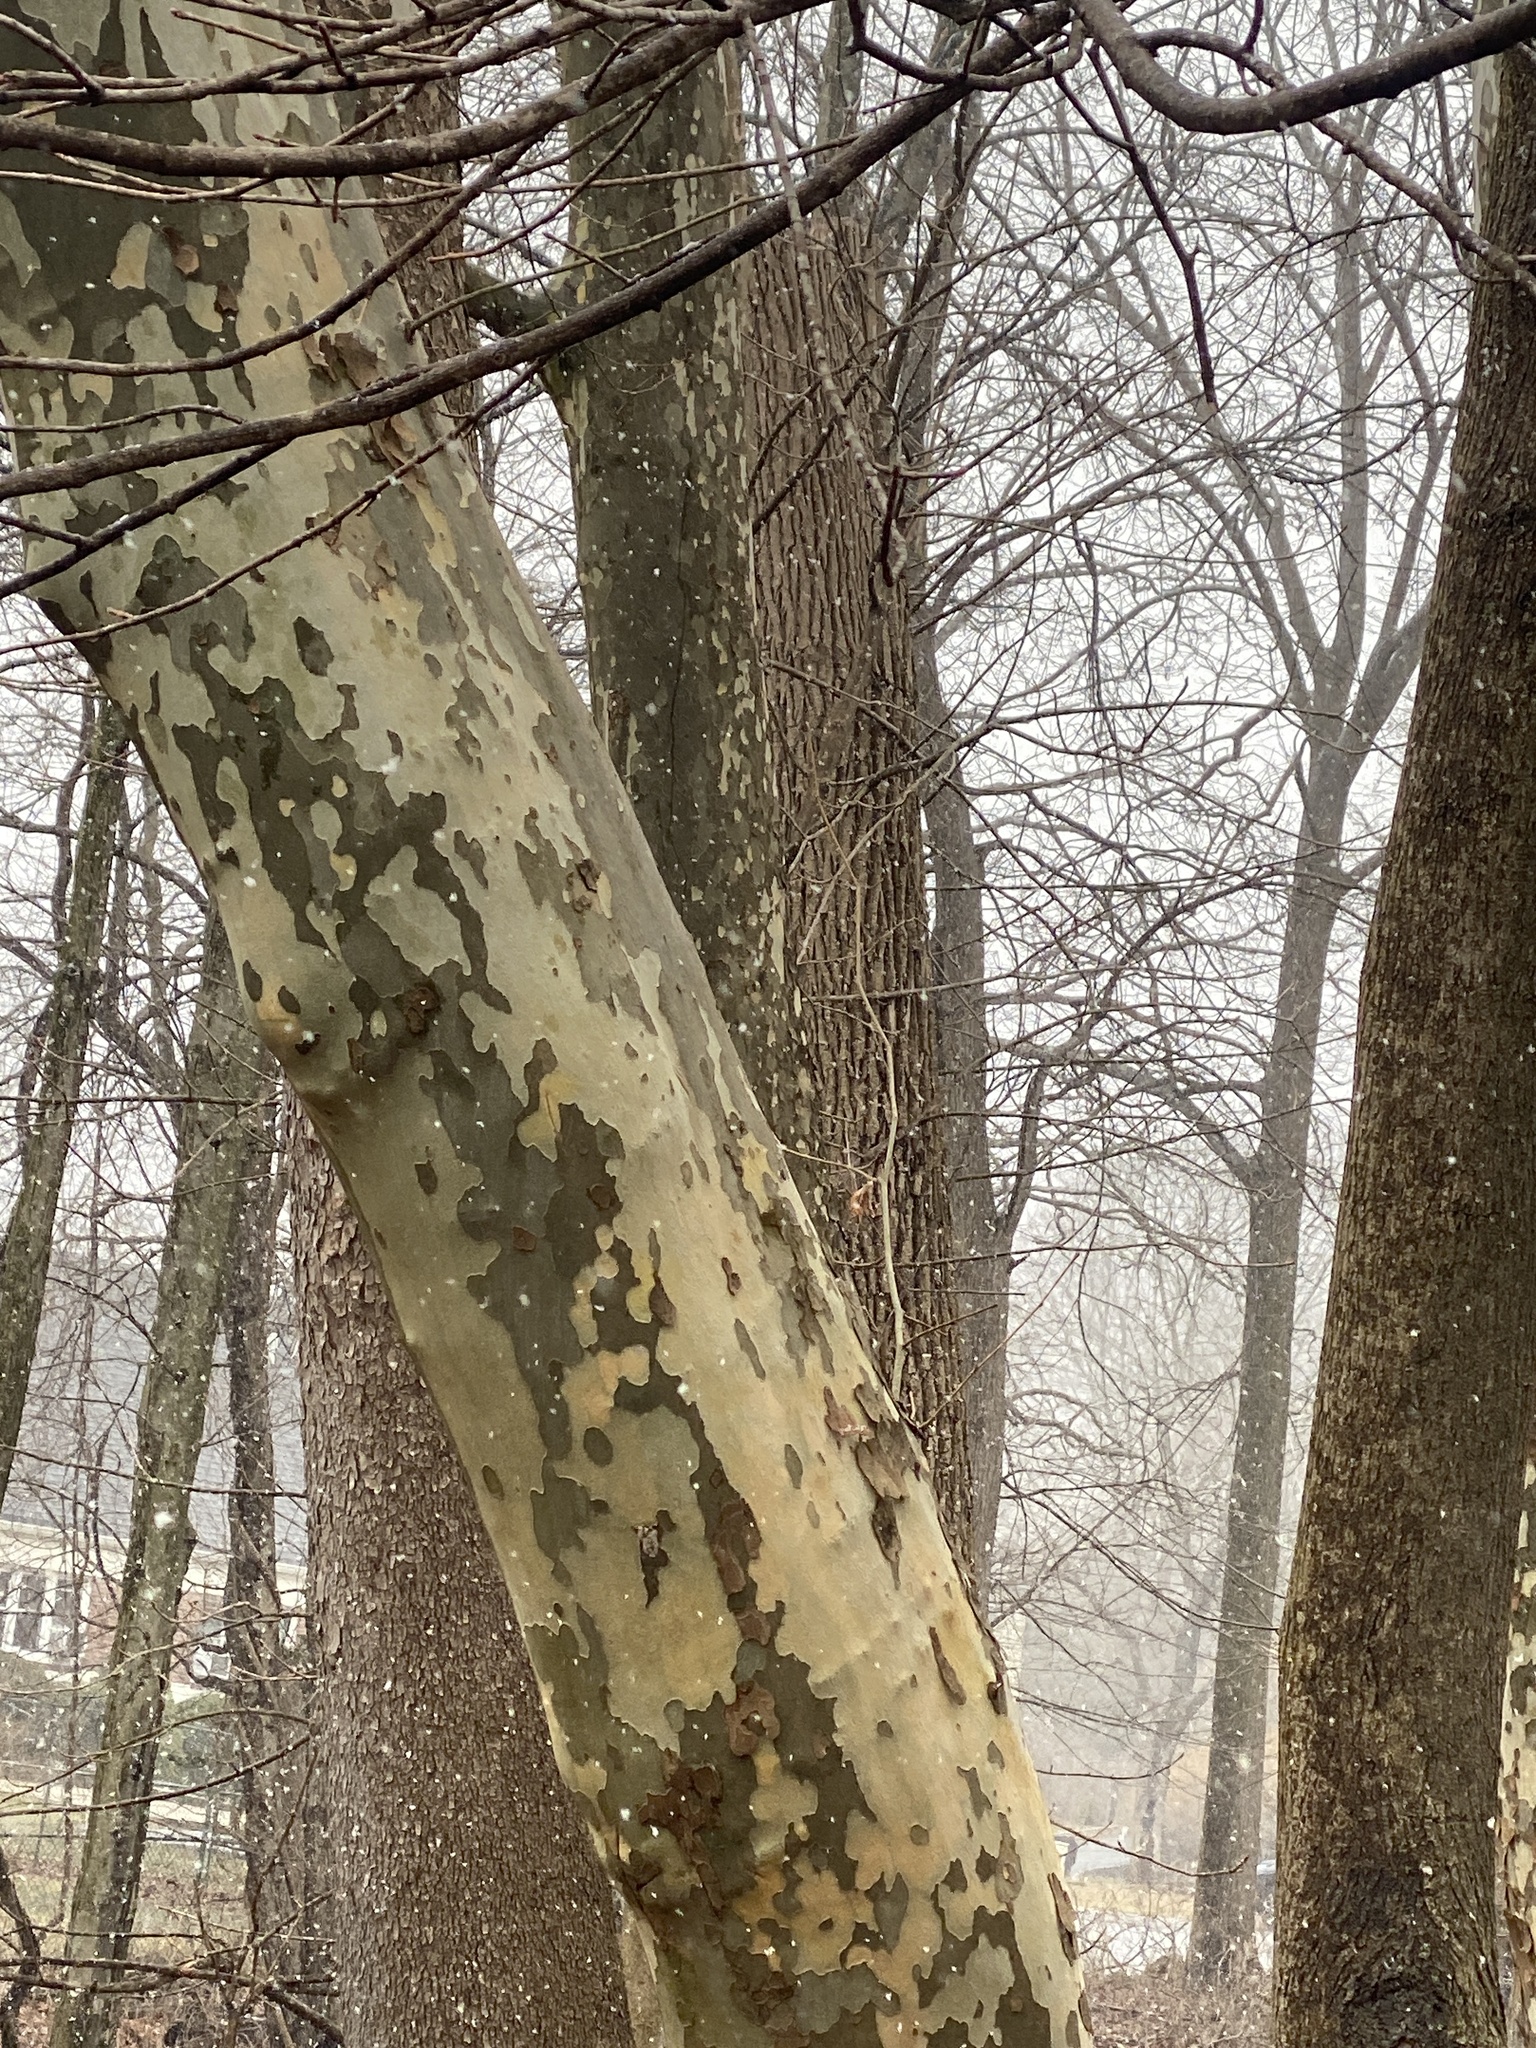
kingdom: Plantae
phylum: Tracheophyta
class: Magnoliopsida
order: Proteales
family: Platanaceae
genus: Platanus
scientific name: Platanus occidentalis
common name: American sycamore
